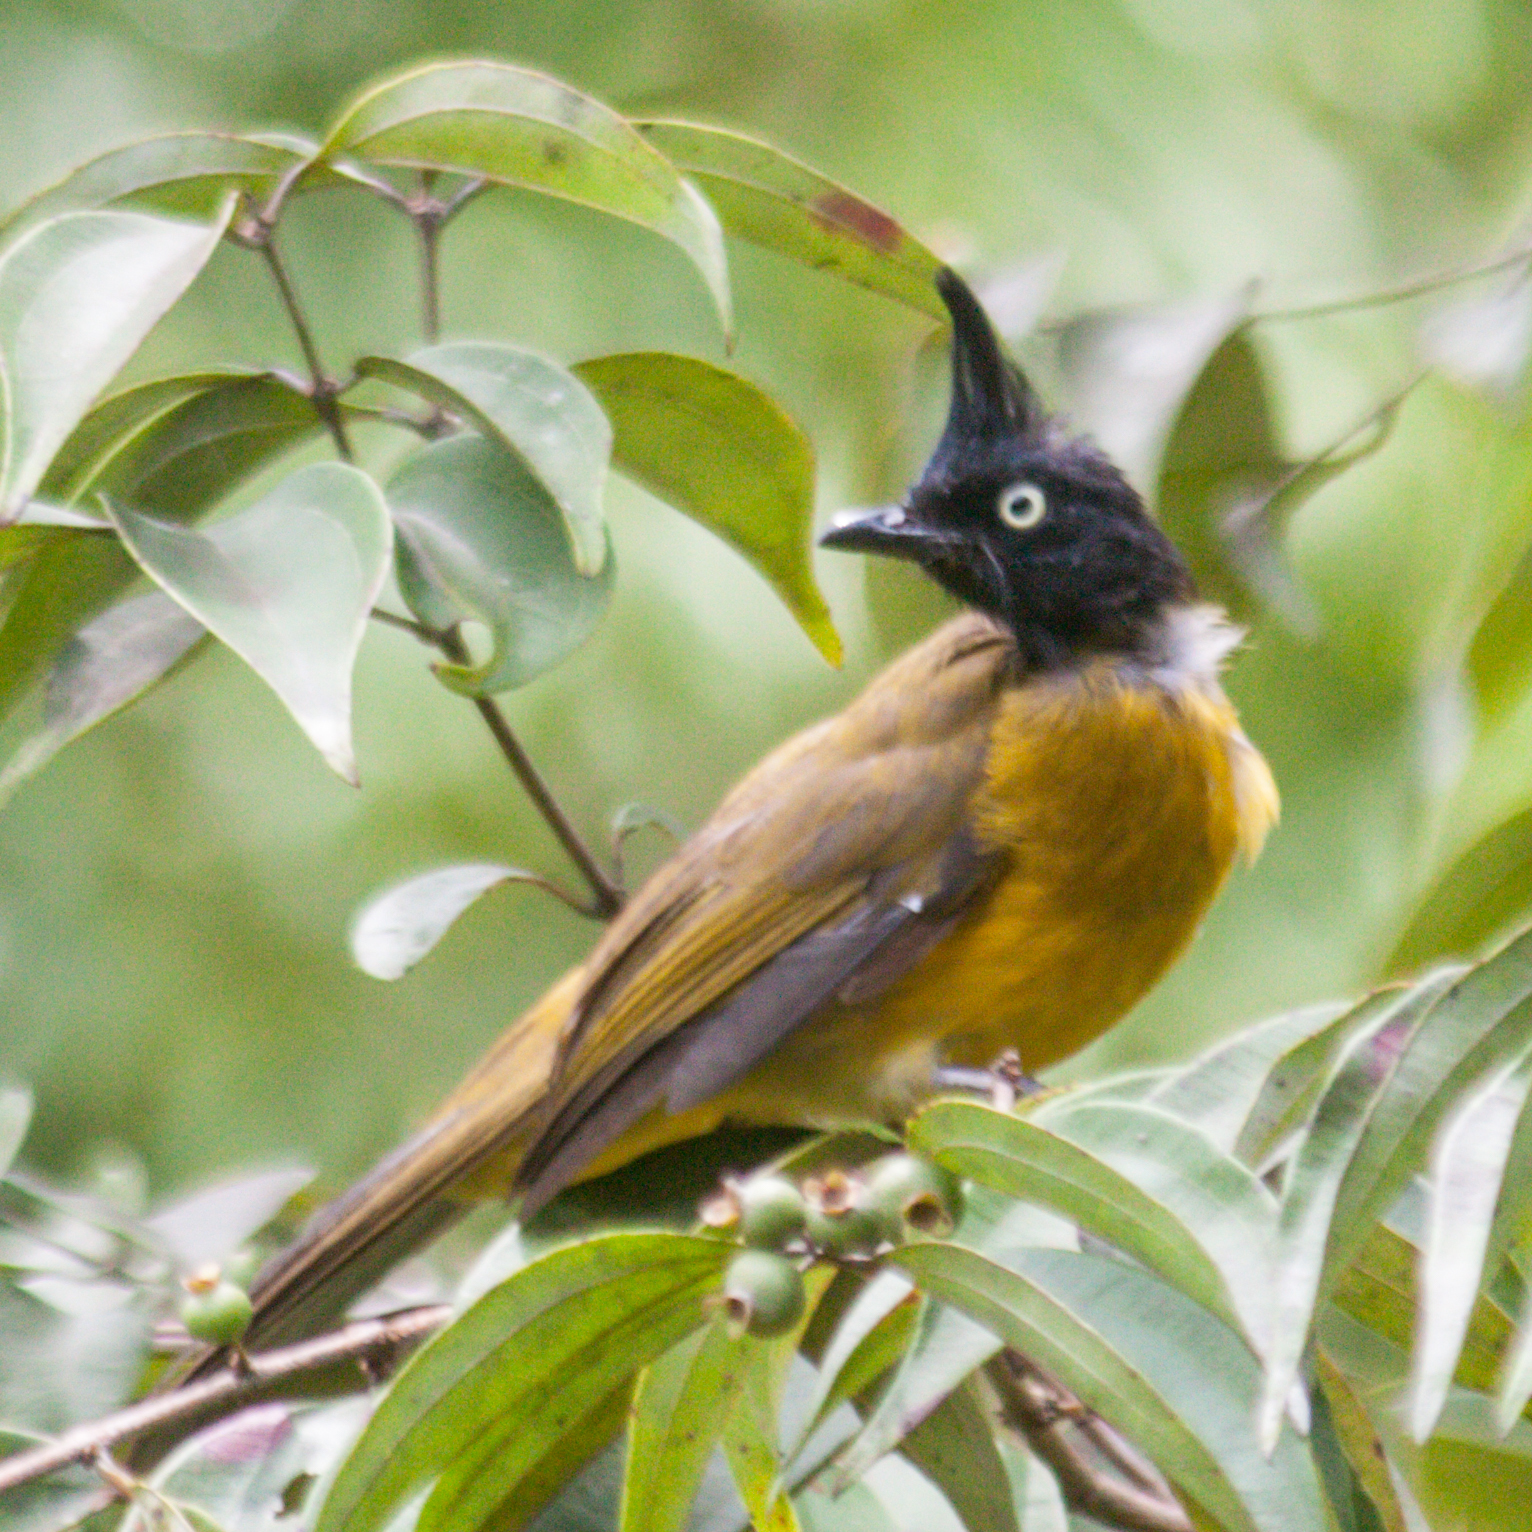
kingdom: Animalia
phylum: Chordata
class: Aves
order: Passeriformes
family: Pycnonotidae
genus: Pycnonotus
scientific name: Pycnonotus flaviventris
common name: Black-crested bulbul
